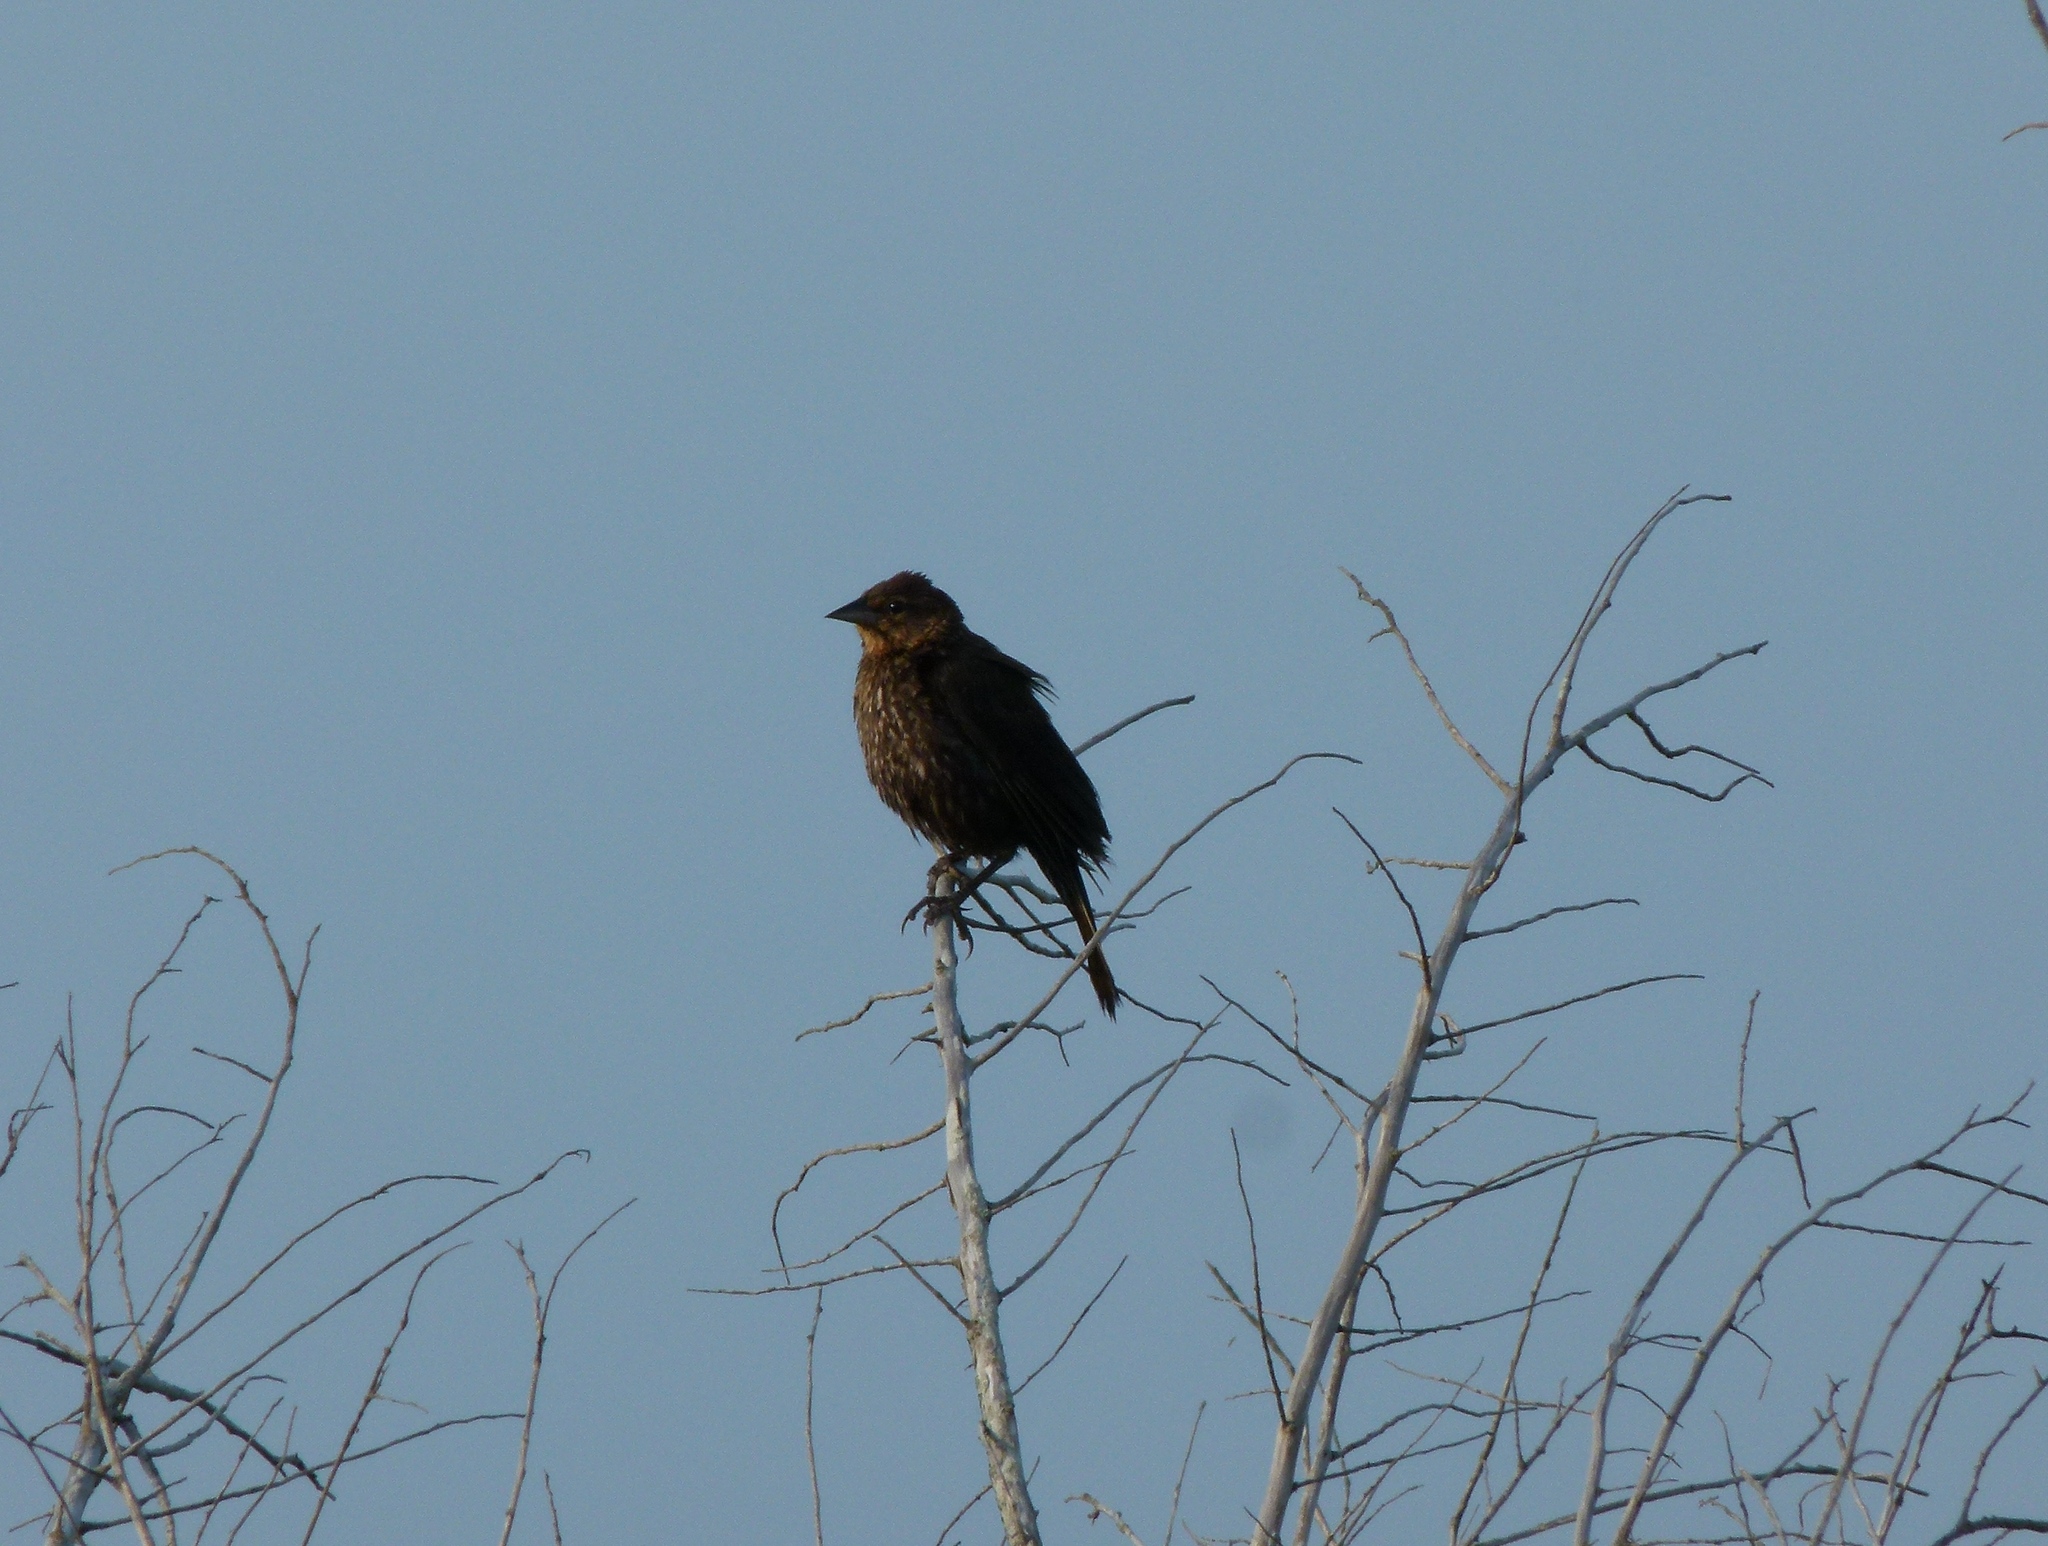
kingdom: Animalia
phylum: Chordata
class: Aves
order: Passeriformes
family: Icteridae
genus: Agelaius
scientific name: Agelaius phoeniceus
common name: Red-winged blackbird
